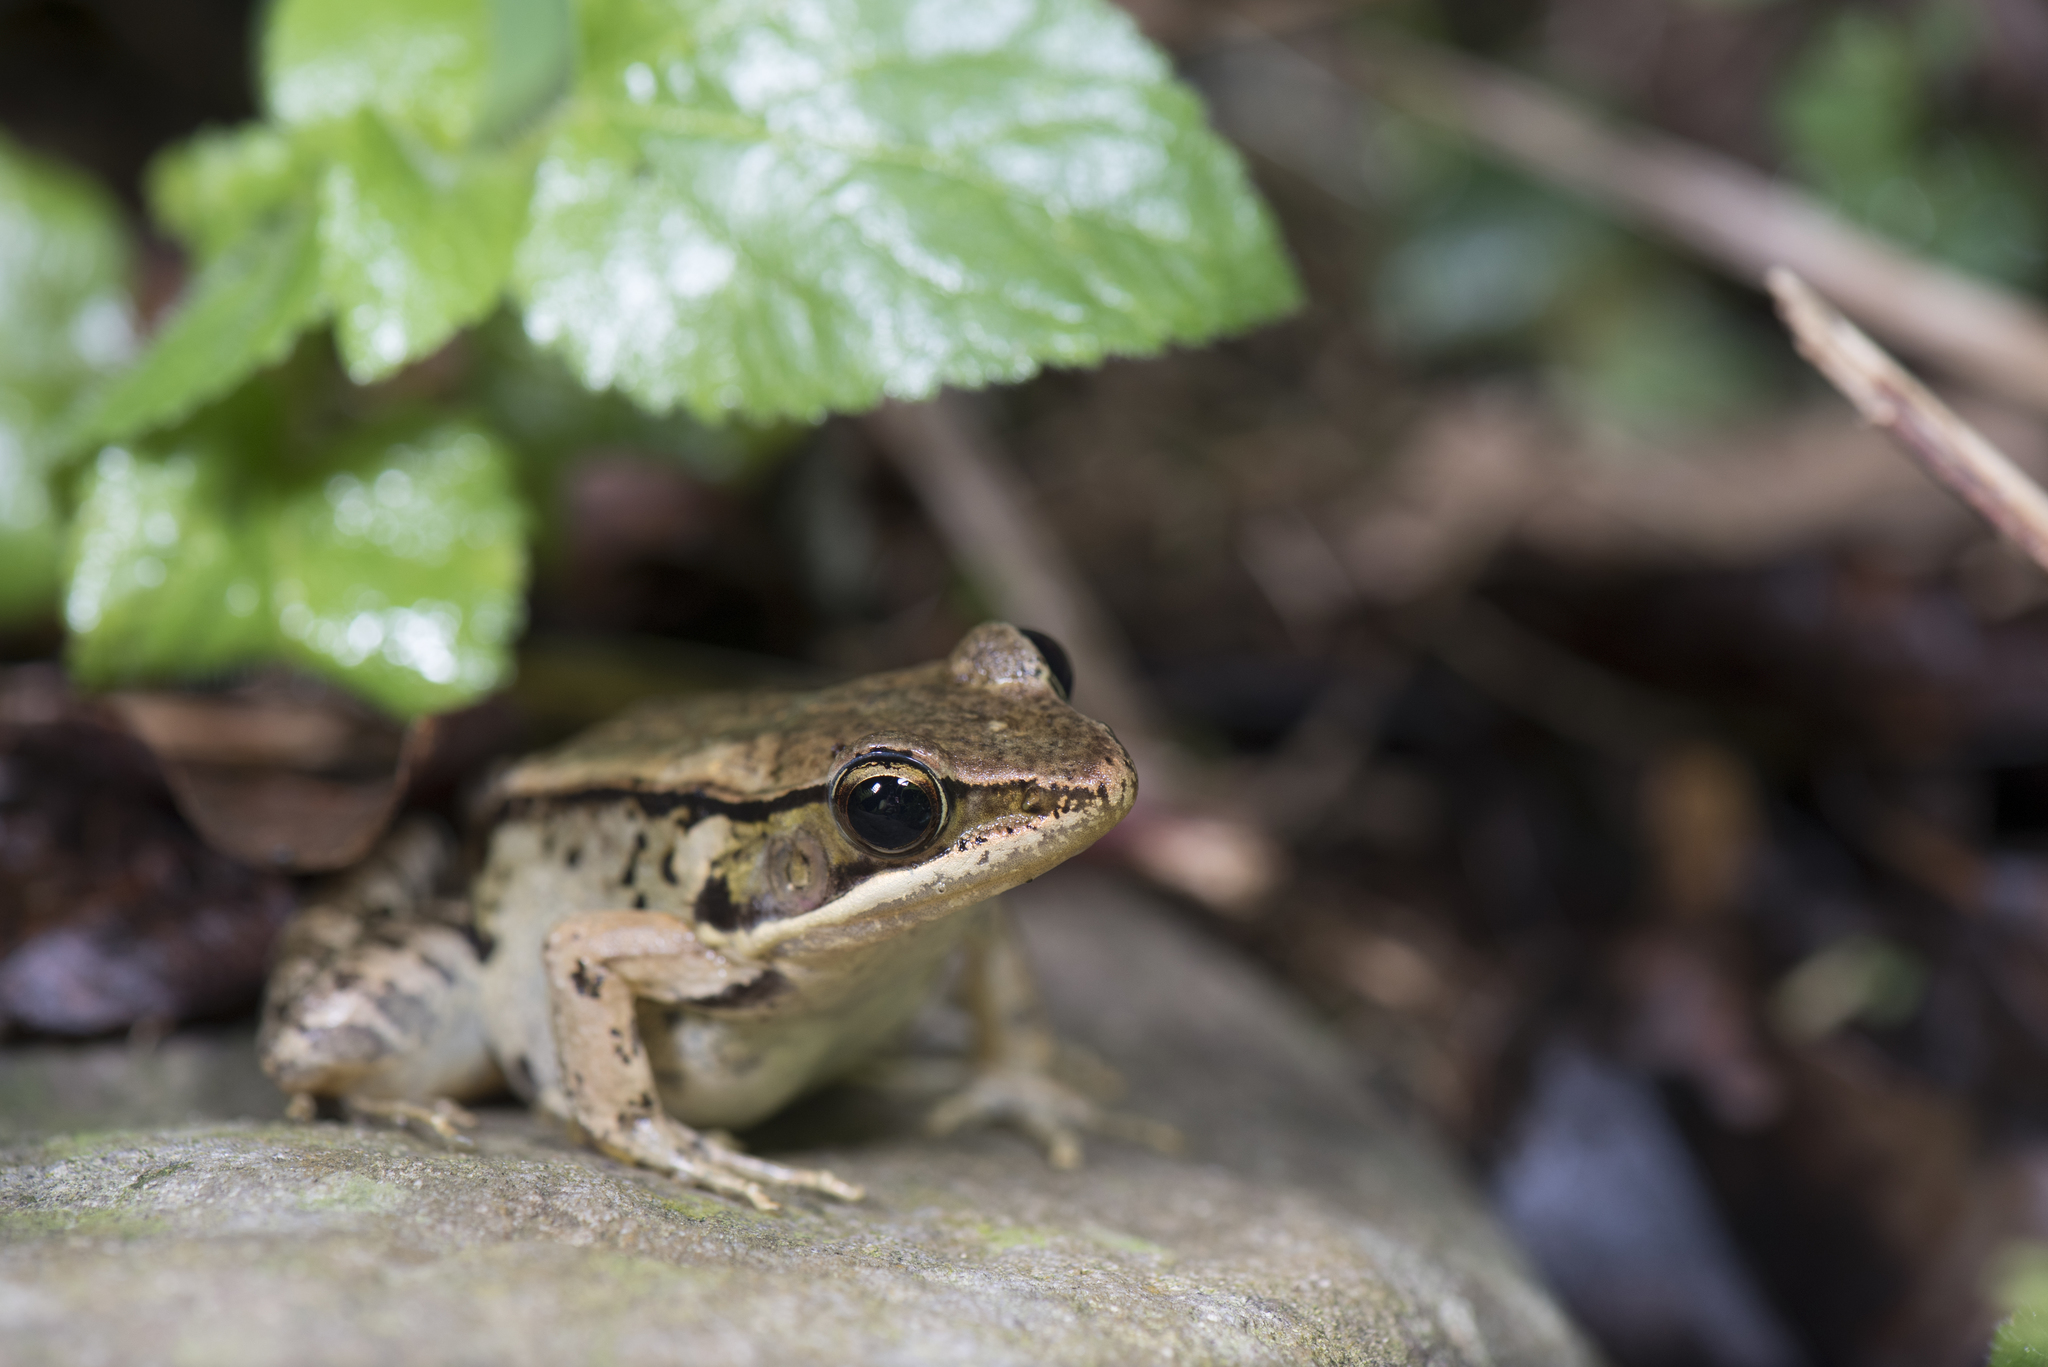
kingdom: Animalia
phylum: Chordata
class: Amphibia
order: Anura
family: Ranidae
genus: Nidirana
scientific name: Nidirana adenopleura
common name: Olive frog
